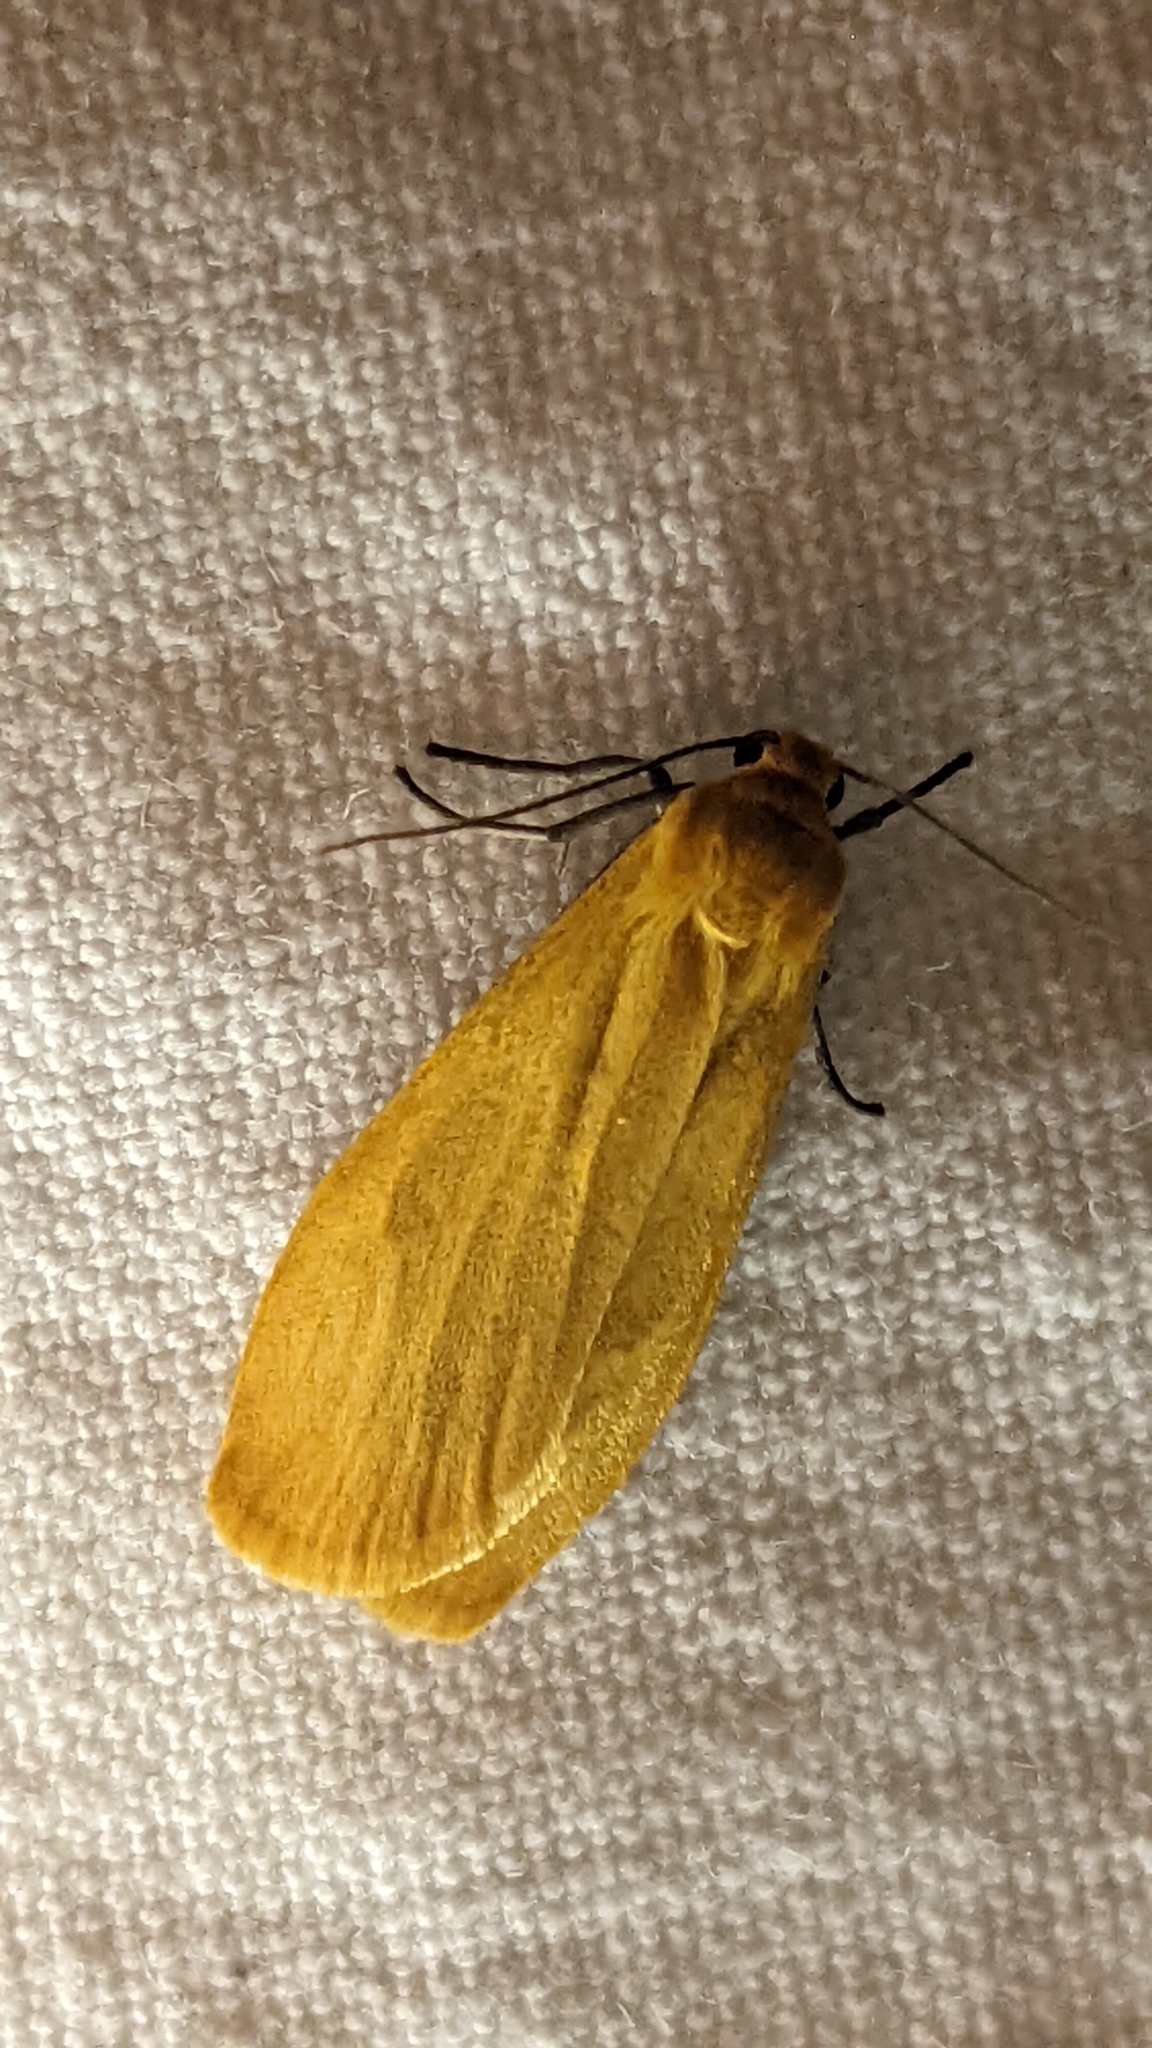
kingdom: Animalia
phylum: Arthropoda
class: Insecta
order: Lepidoptera
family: Erebidae
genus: Wittia
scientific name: Wittia sororcula
